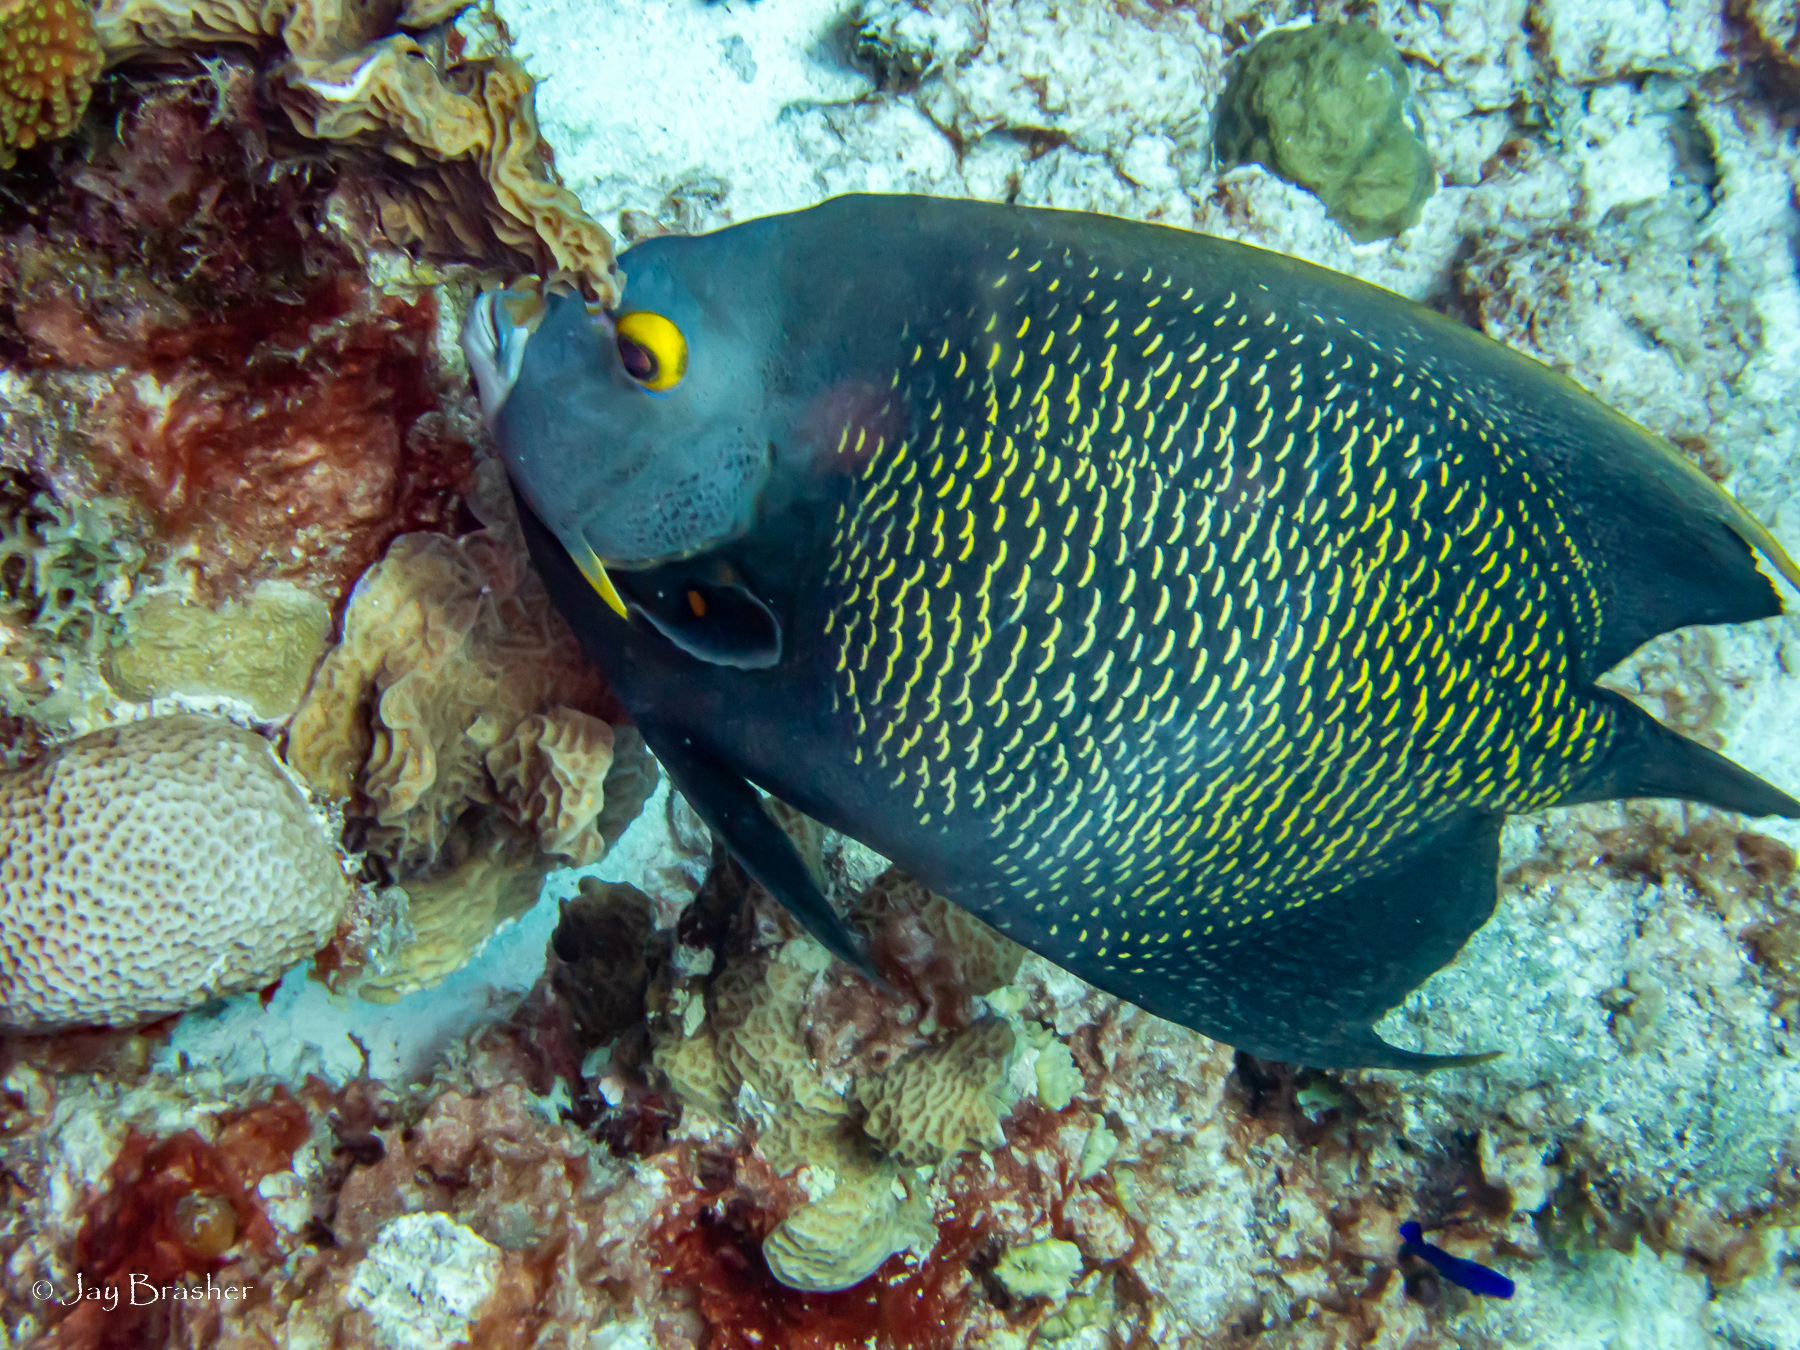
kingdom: Animalia
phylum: Cnidaria
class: Anthozoa
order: Scleractinia
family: Agariciidae
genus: Agaricia
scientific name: Agaricia agaricites
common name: Lettuce coral
